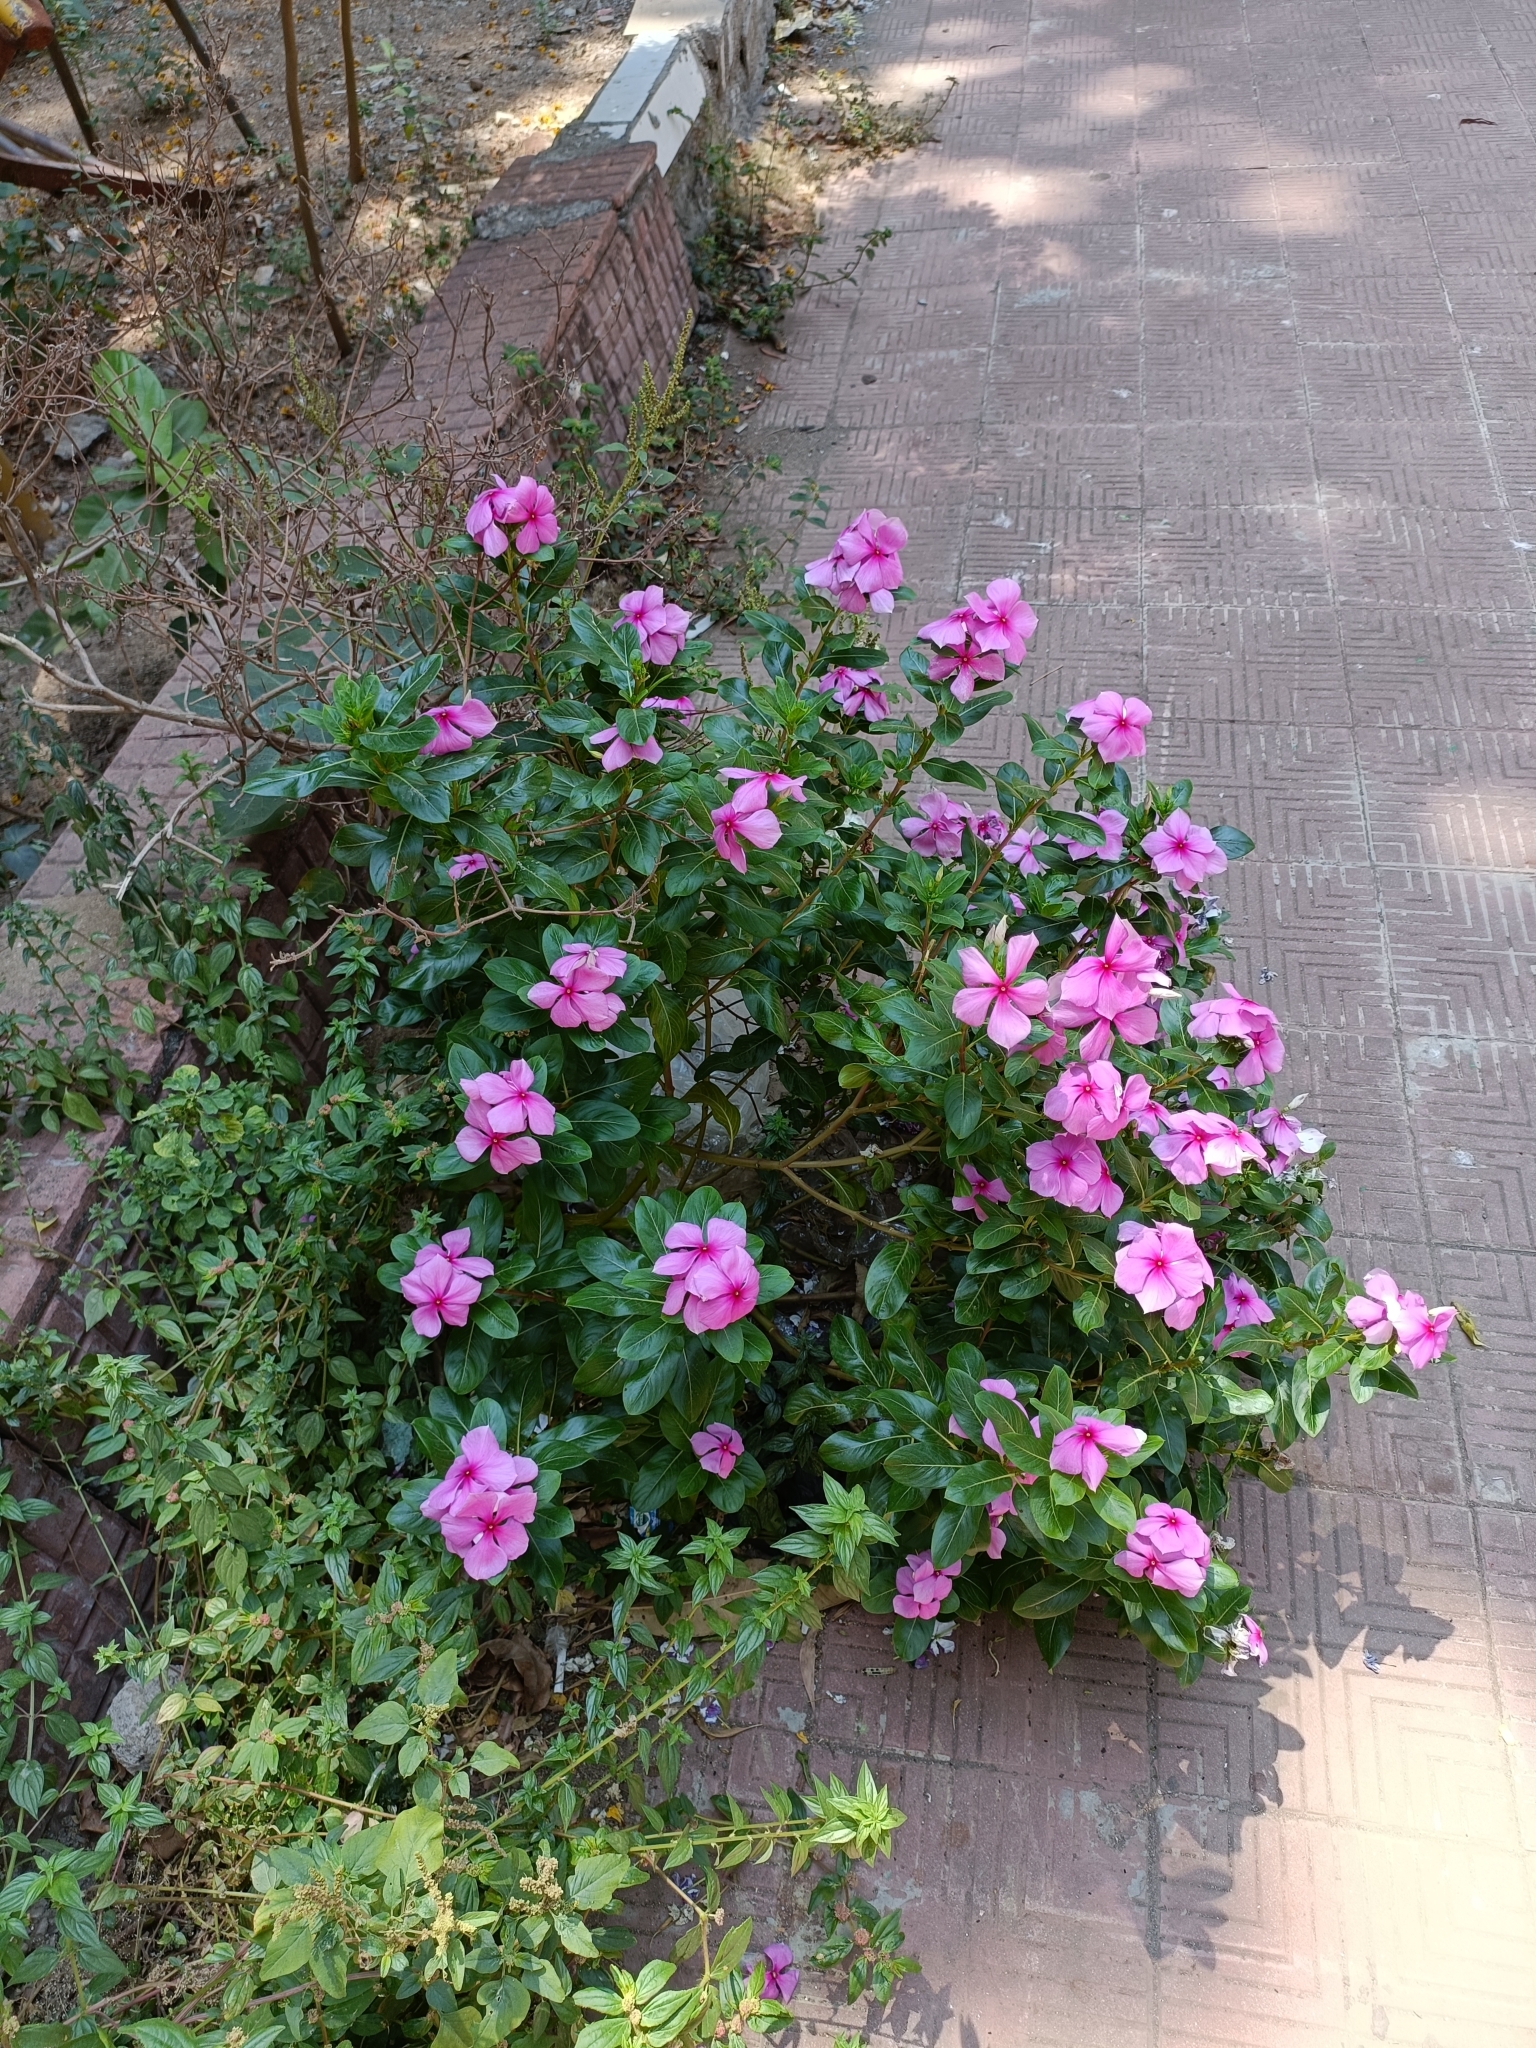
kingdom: Plantae
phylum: Tracheophyta
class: Magnoliopsida
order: Gentianales
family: Apocynaceae
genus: Catharanthus
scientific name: Catharanthus roseus
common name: Madagascar periwinkle
